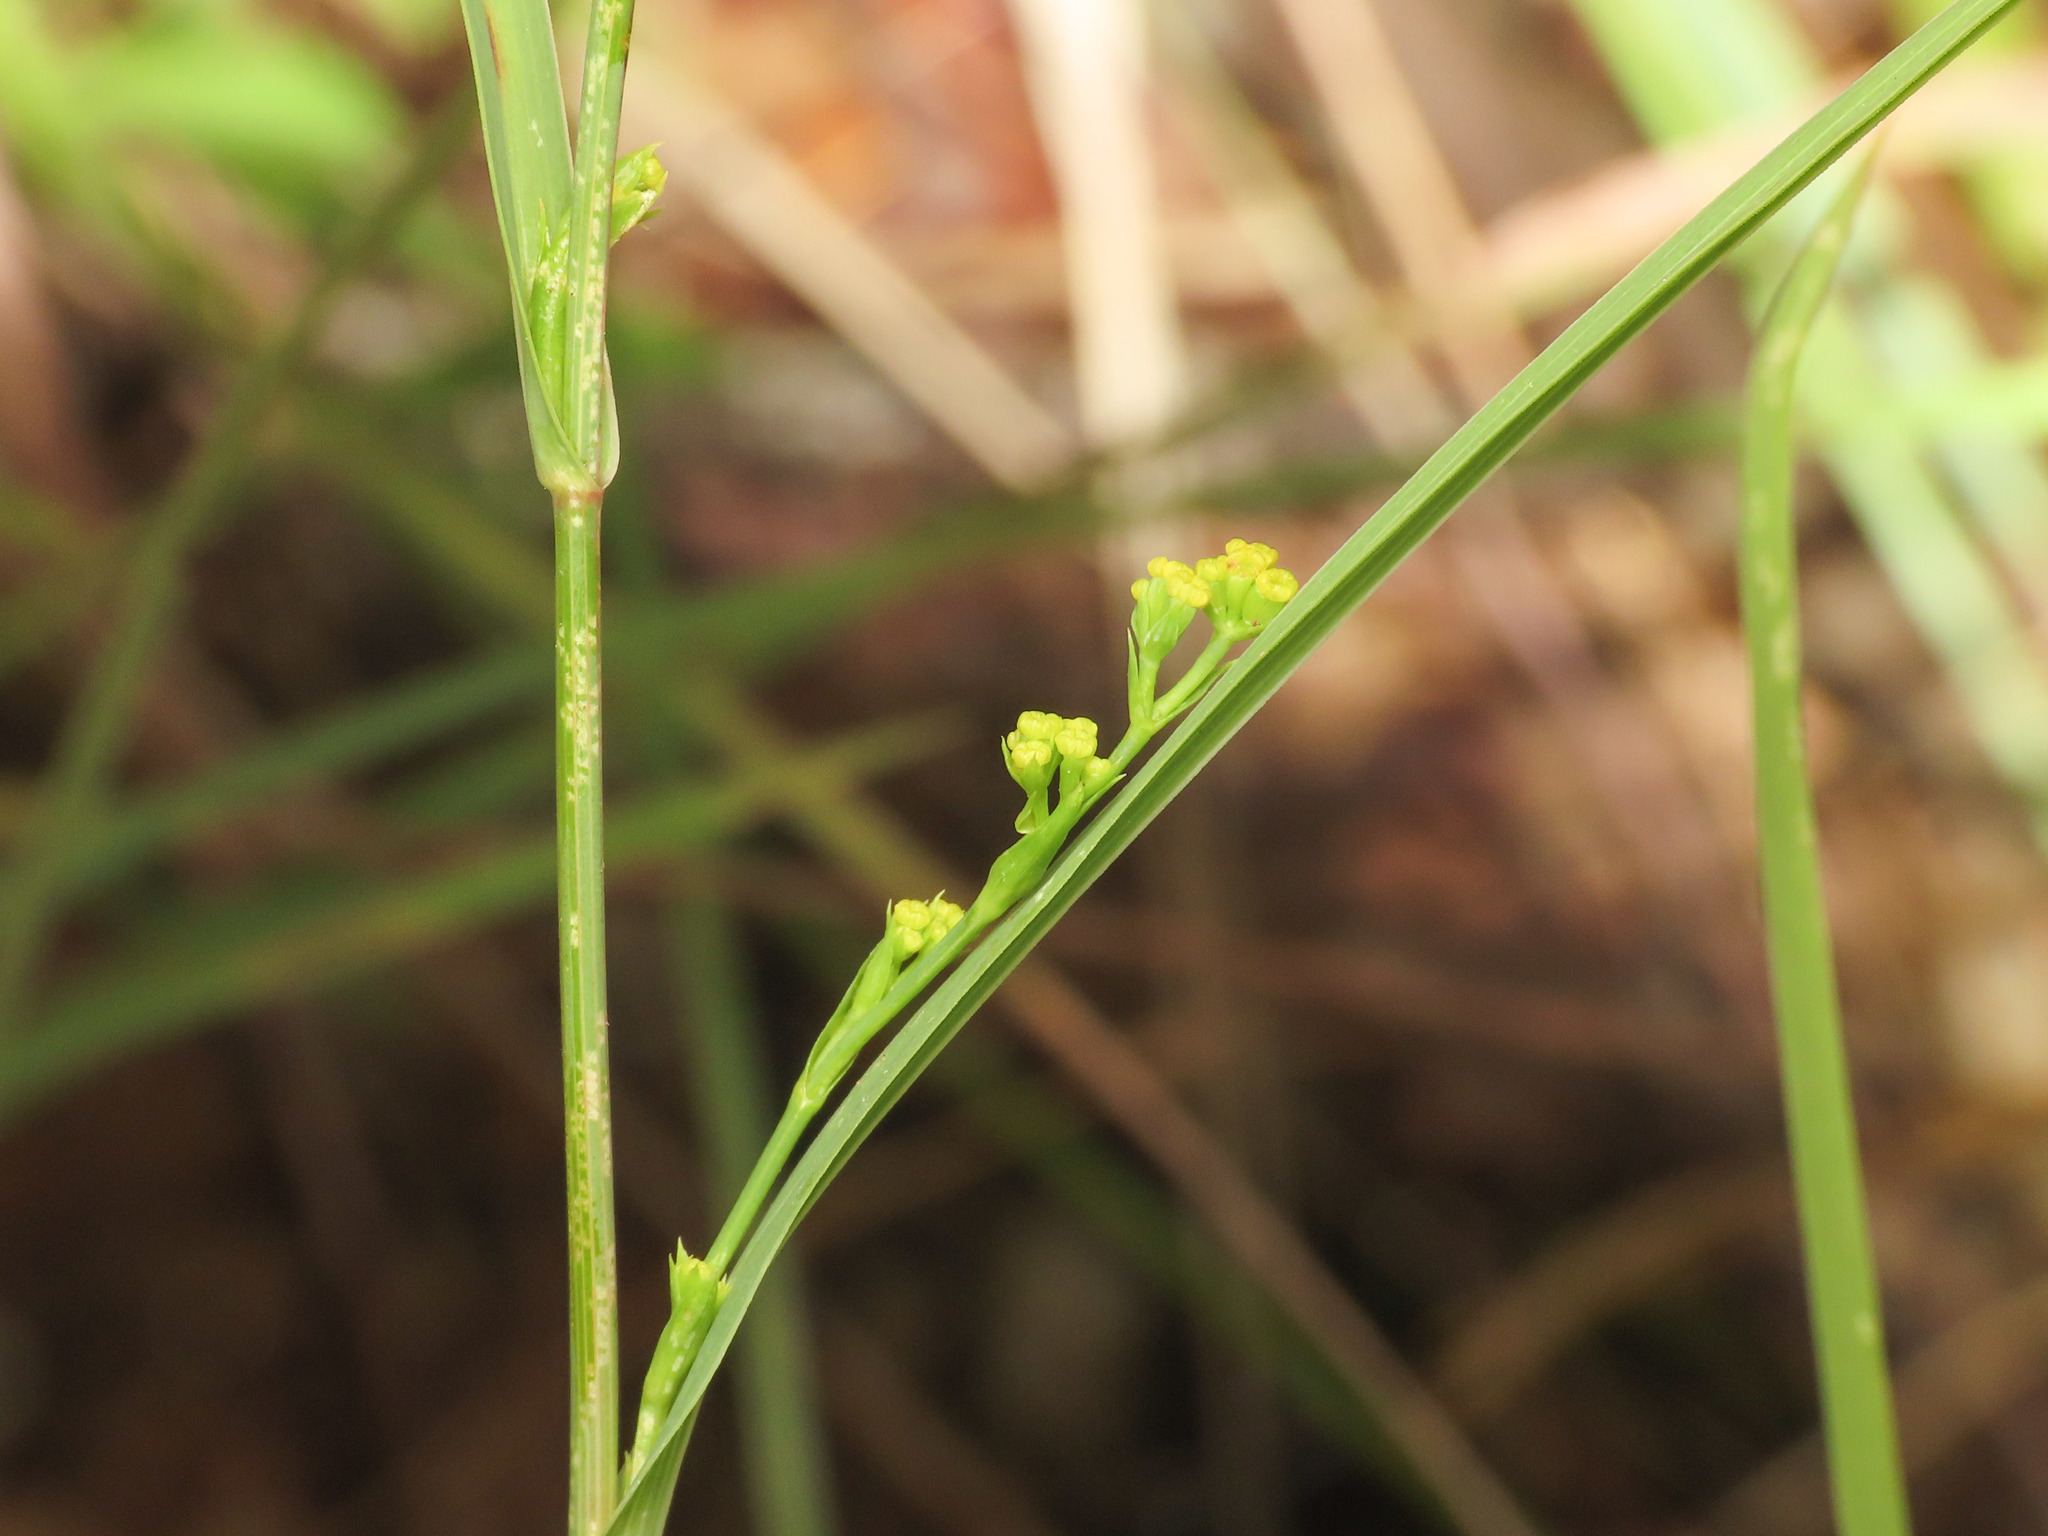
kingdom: Plantae
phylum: Tracheophyta
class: Magnoliopsida
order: Apiales
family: Apiaceae
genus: Bupleurum
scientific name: Bupleurum praealtum
